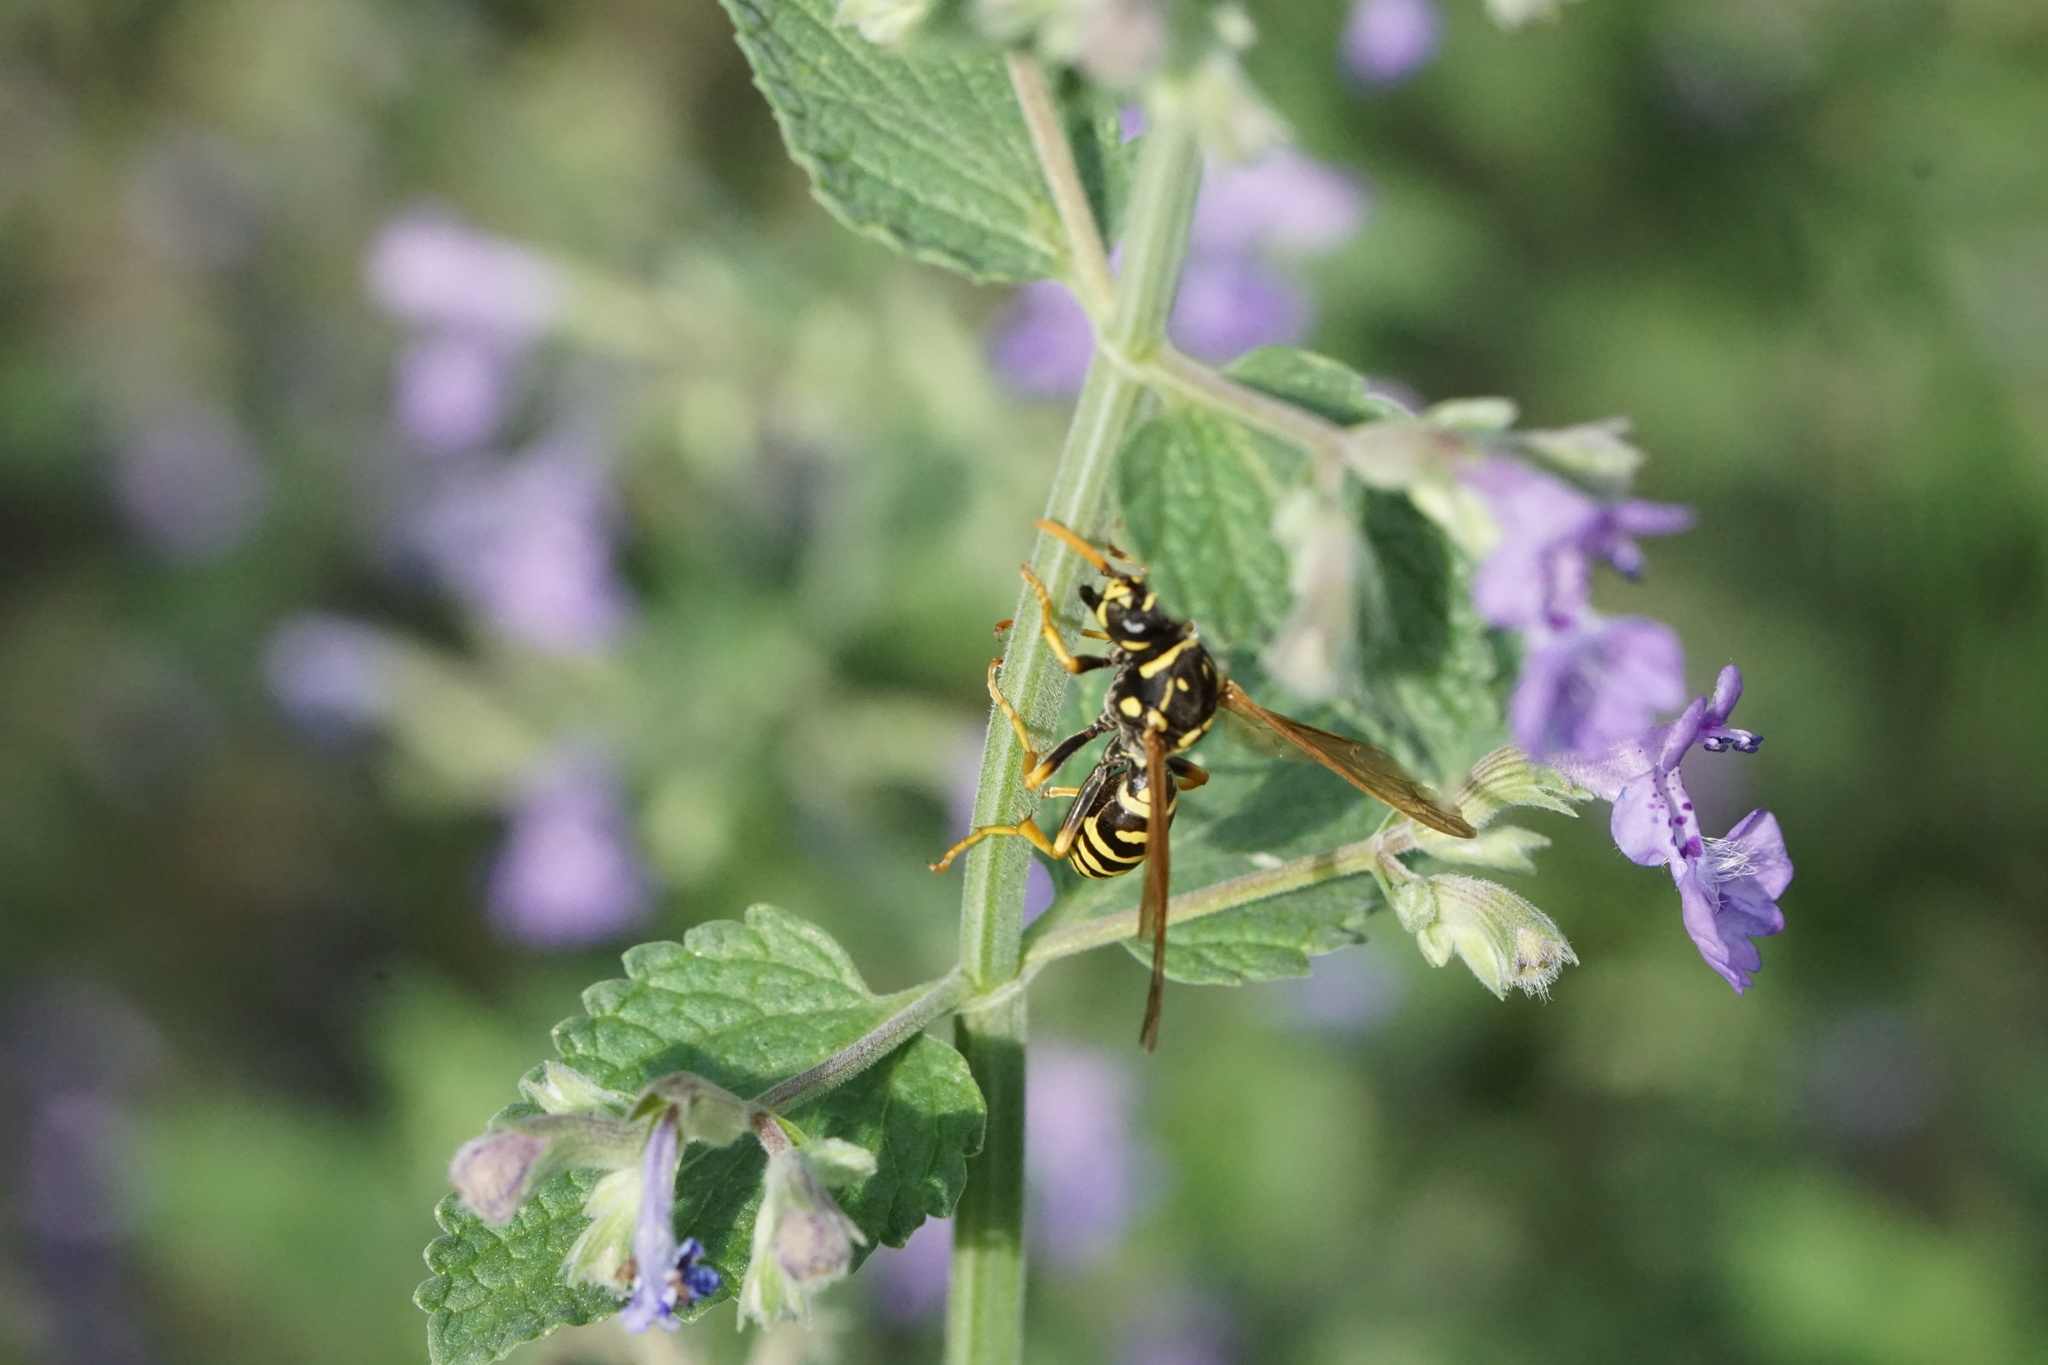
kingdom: Animalia
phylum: Arthropoda
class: Insecta
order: Hymenoptera
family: Eumenidae
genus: Polistes
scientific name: Polistes dominula
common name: Paper wasp
